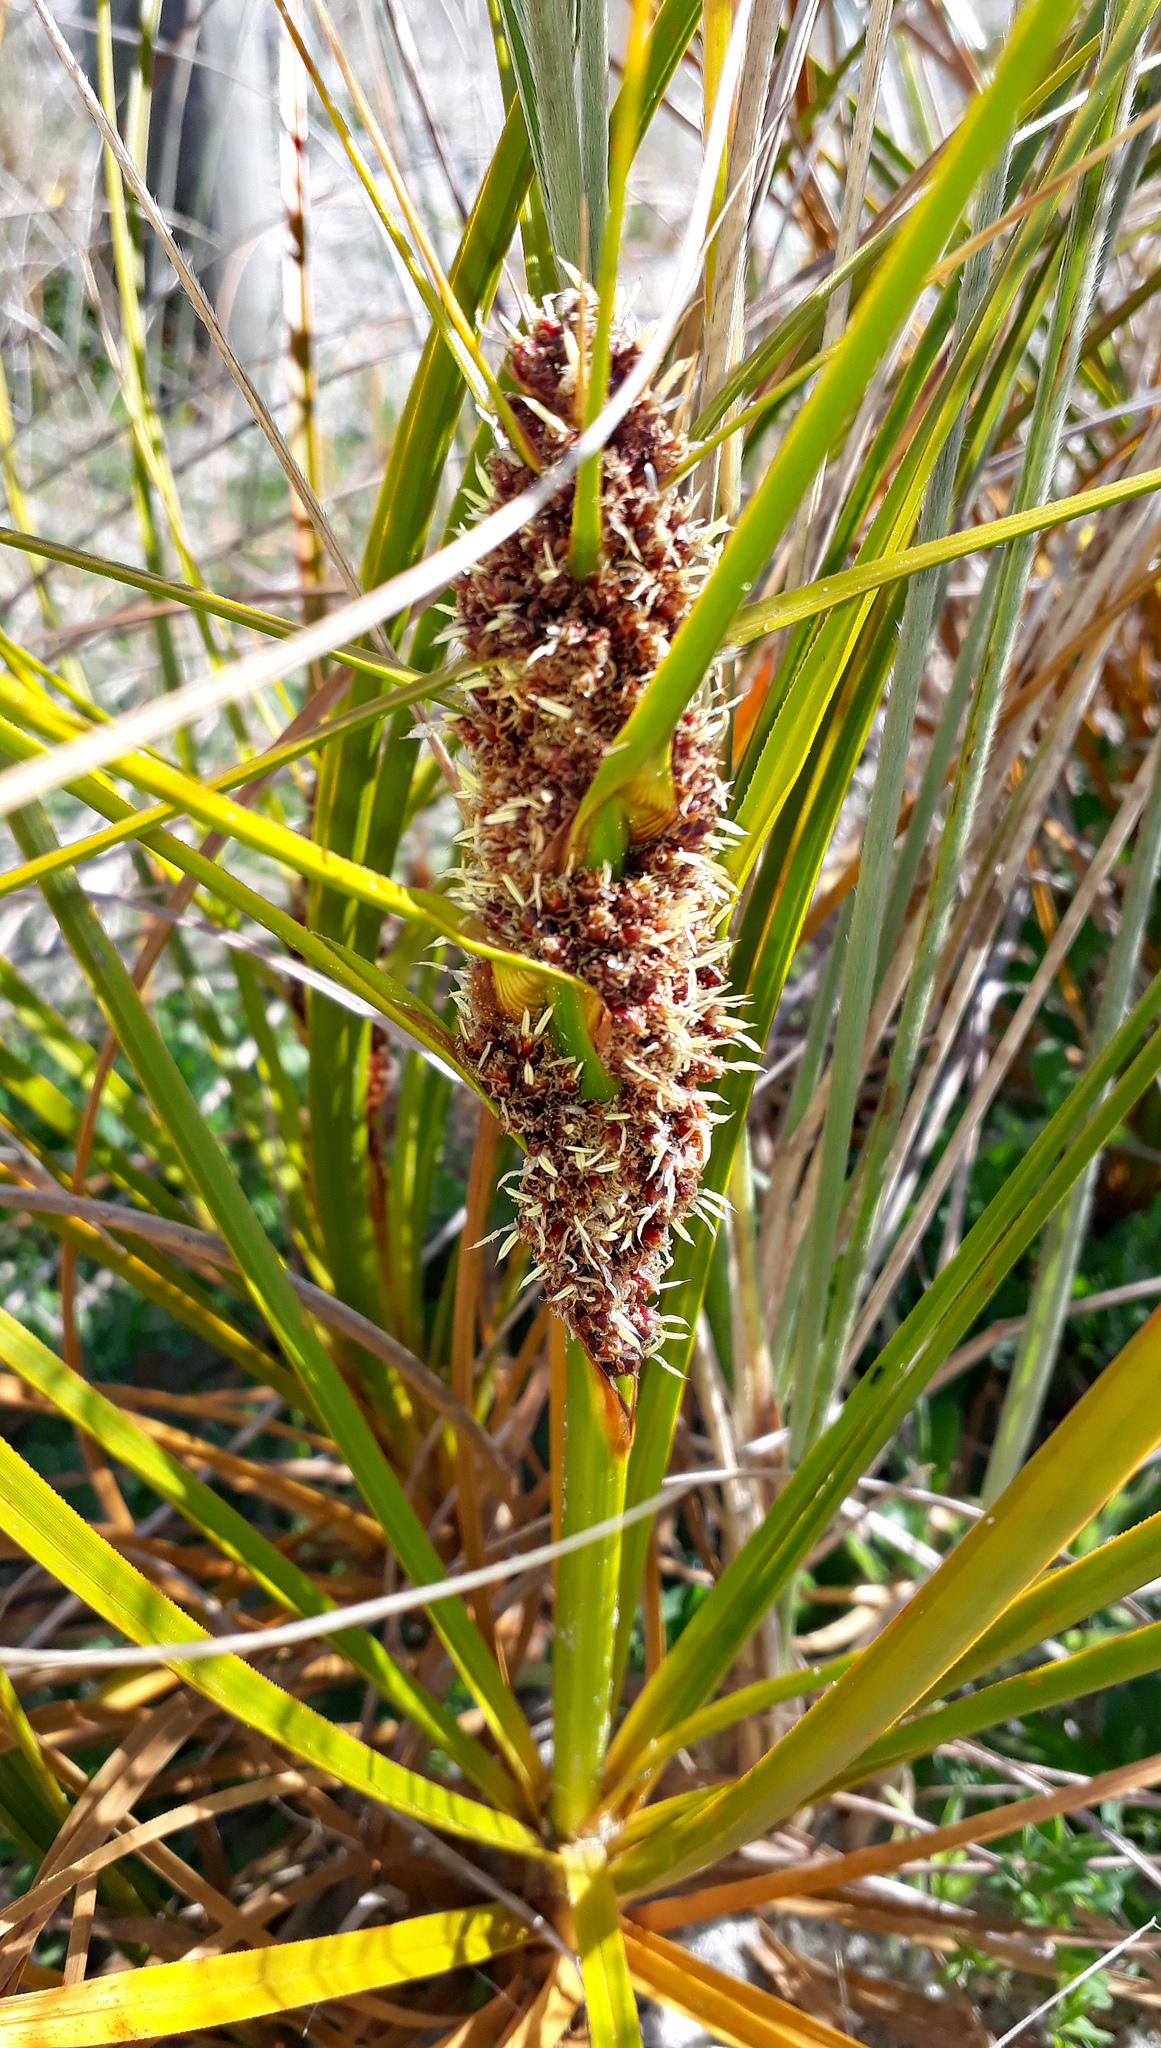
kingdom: Plantae
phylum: Tracheophyta
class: Liliopsida
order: Poales
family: Cyperaceae
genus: Ficinia
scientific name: Ficinia spiralis
